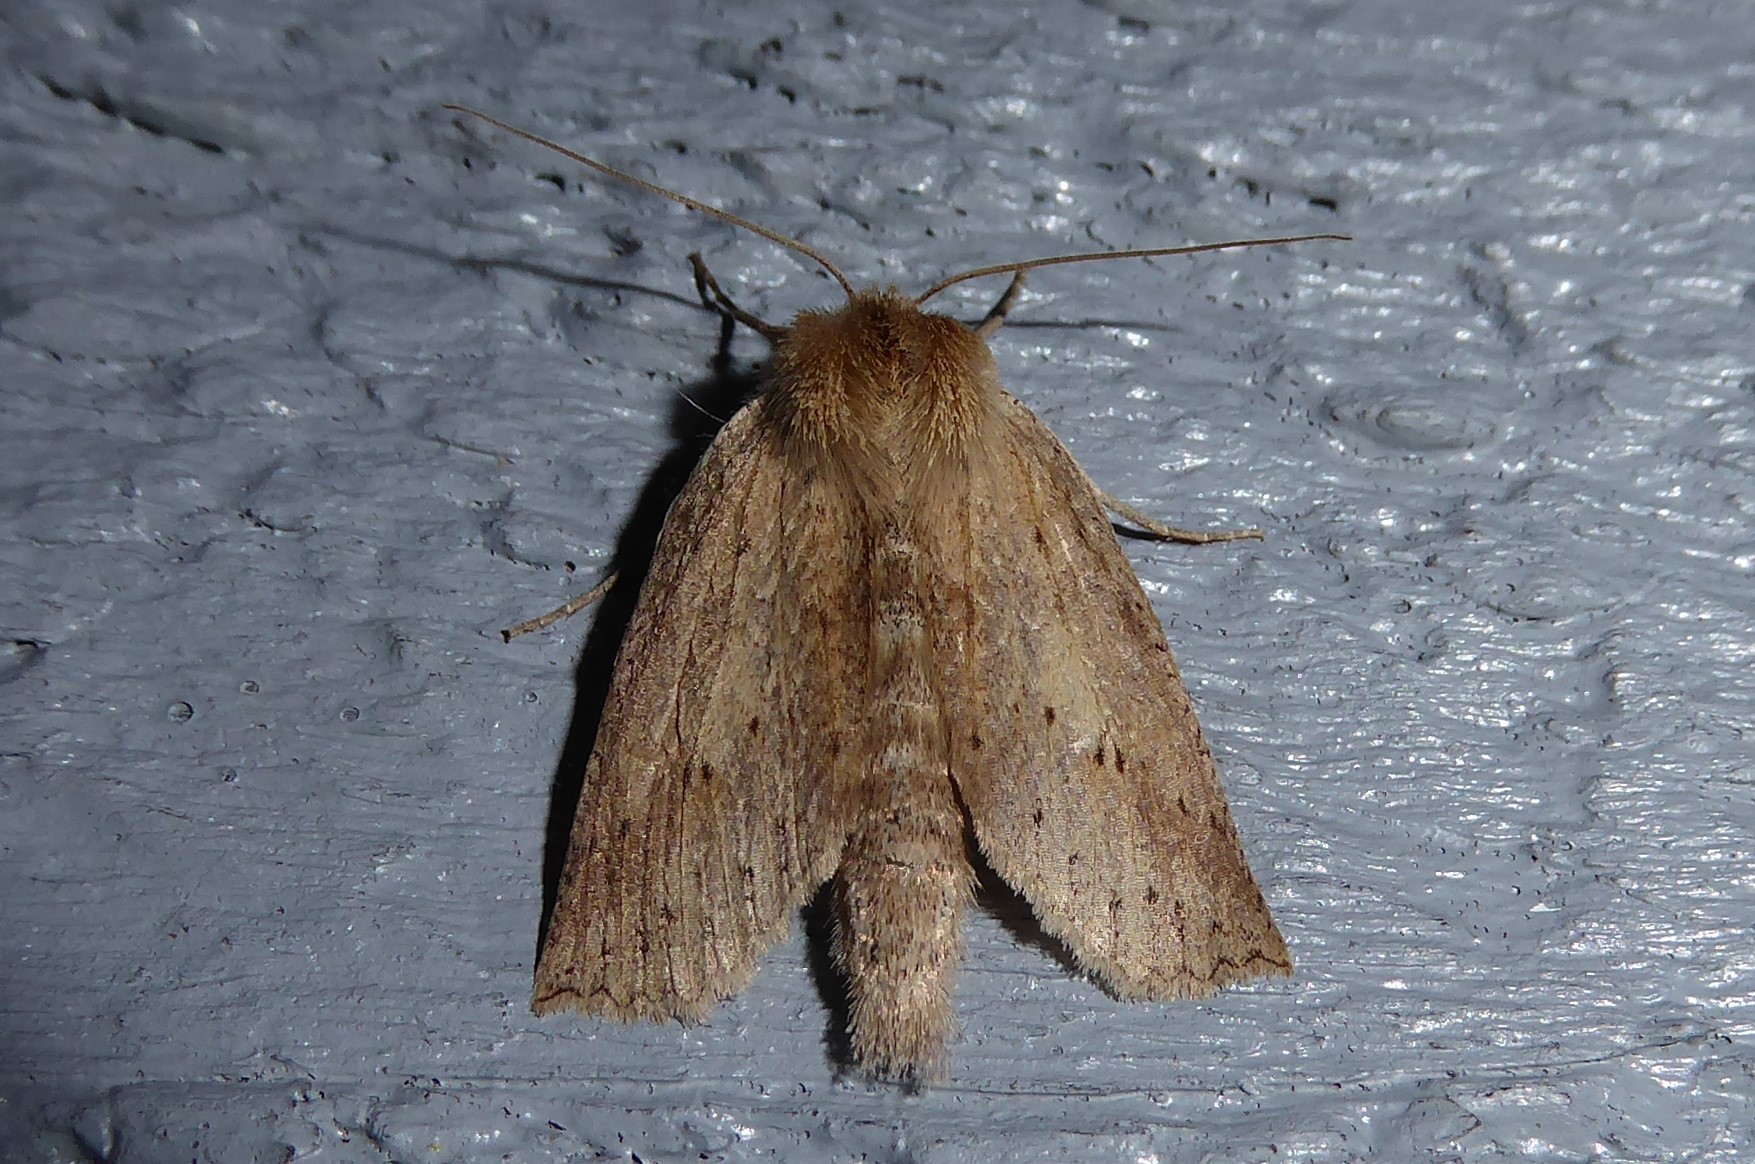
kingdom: Animalia
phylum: Arthropoda
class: Insecta
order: Lepidoptera
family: Geometridae
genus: Declana
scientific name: Declana leptomera
